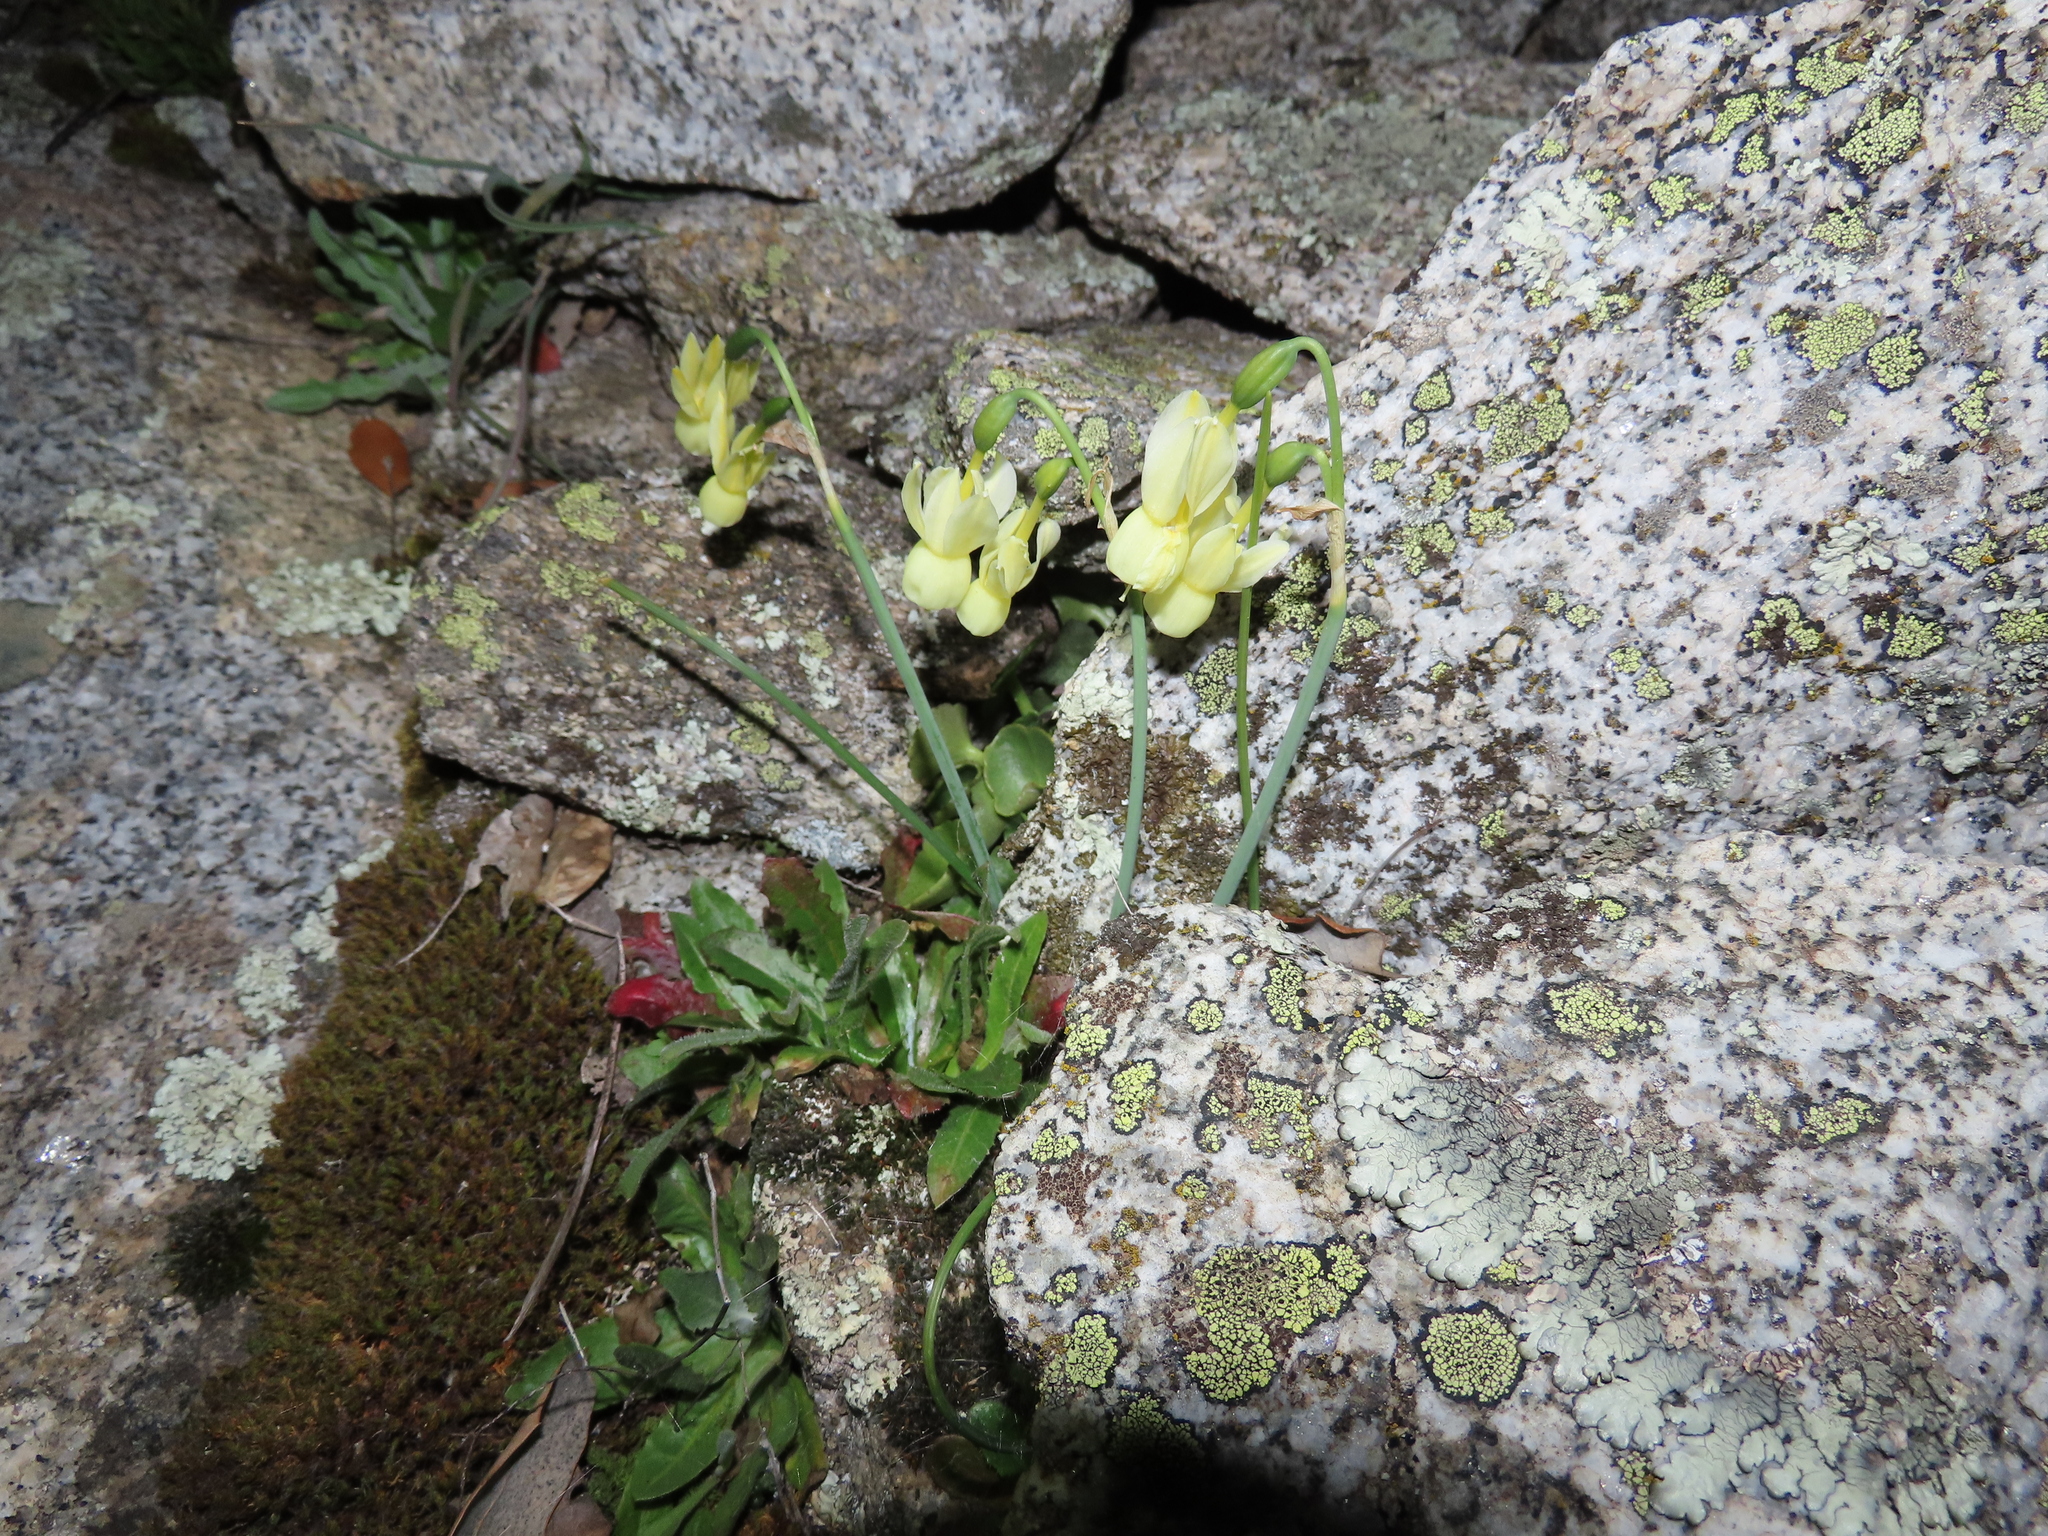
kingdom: Plantae
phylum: Tracheophyta
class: Liliopsida
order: Asparagales
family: Amaryllidaceae
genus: Narcissus
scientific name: Narcissus triandrus
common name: Angel's-tears
